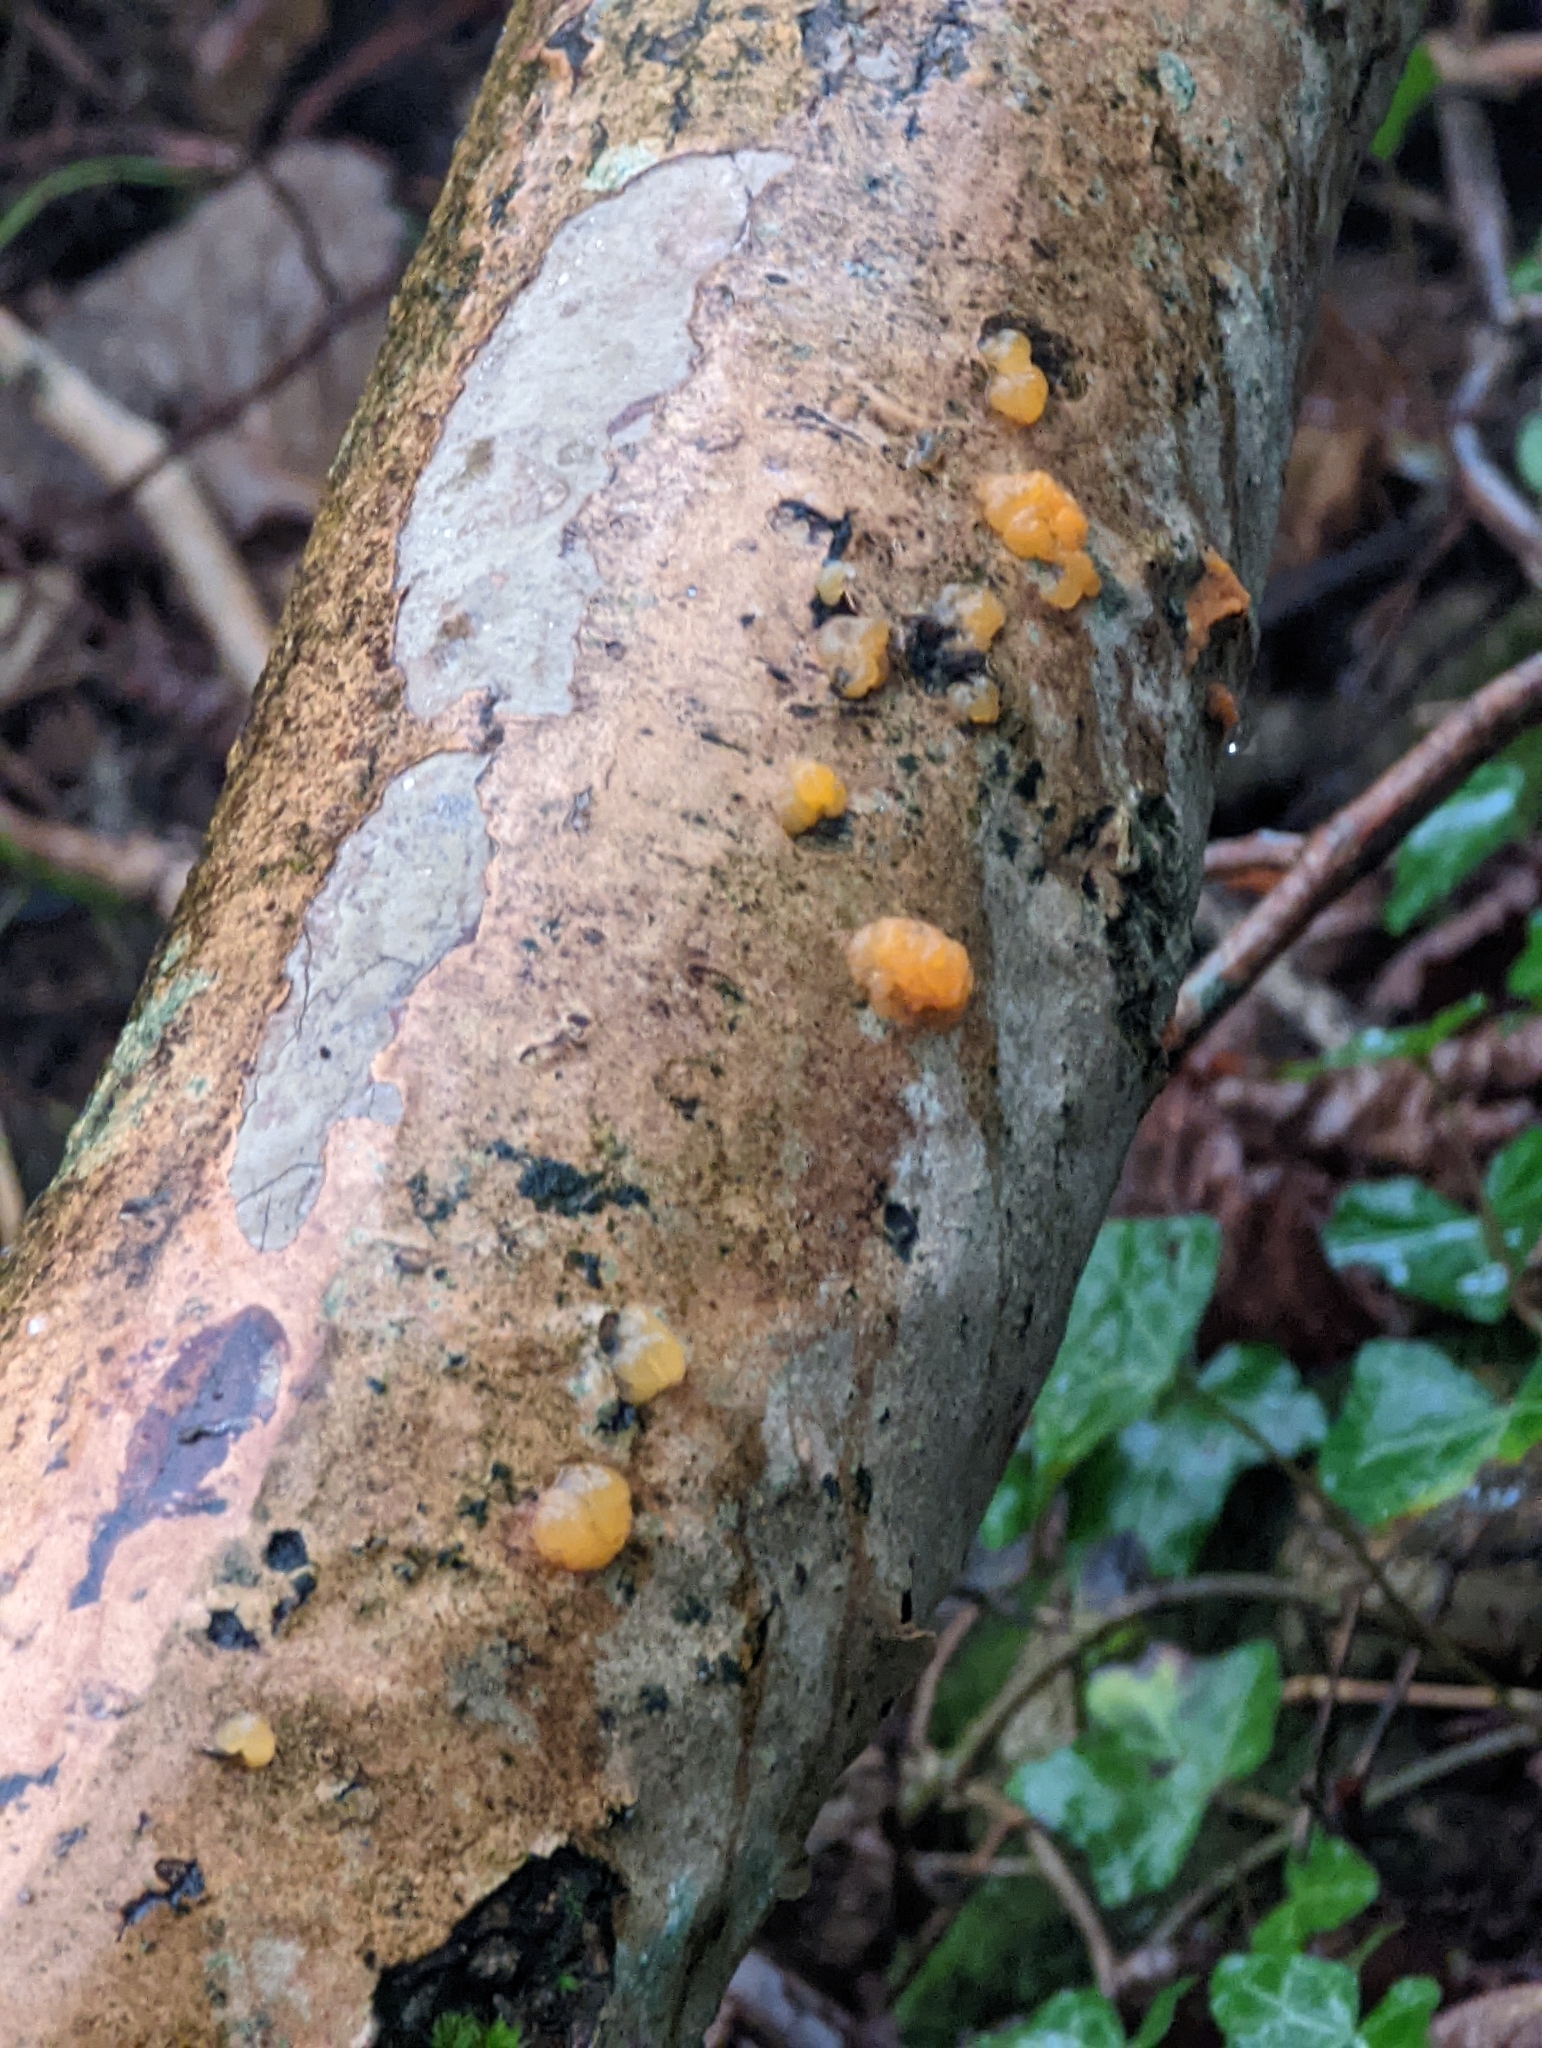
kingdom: Fungi
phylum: Basidiomycota
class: Tremellomycetes
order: Tremellales
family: Tremellaceae
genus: Tremella
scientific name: Tremella mesenterica
